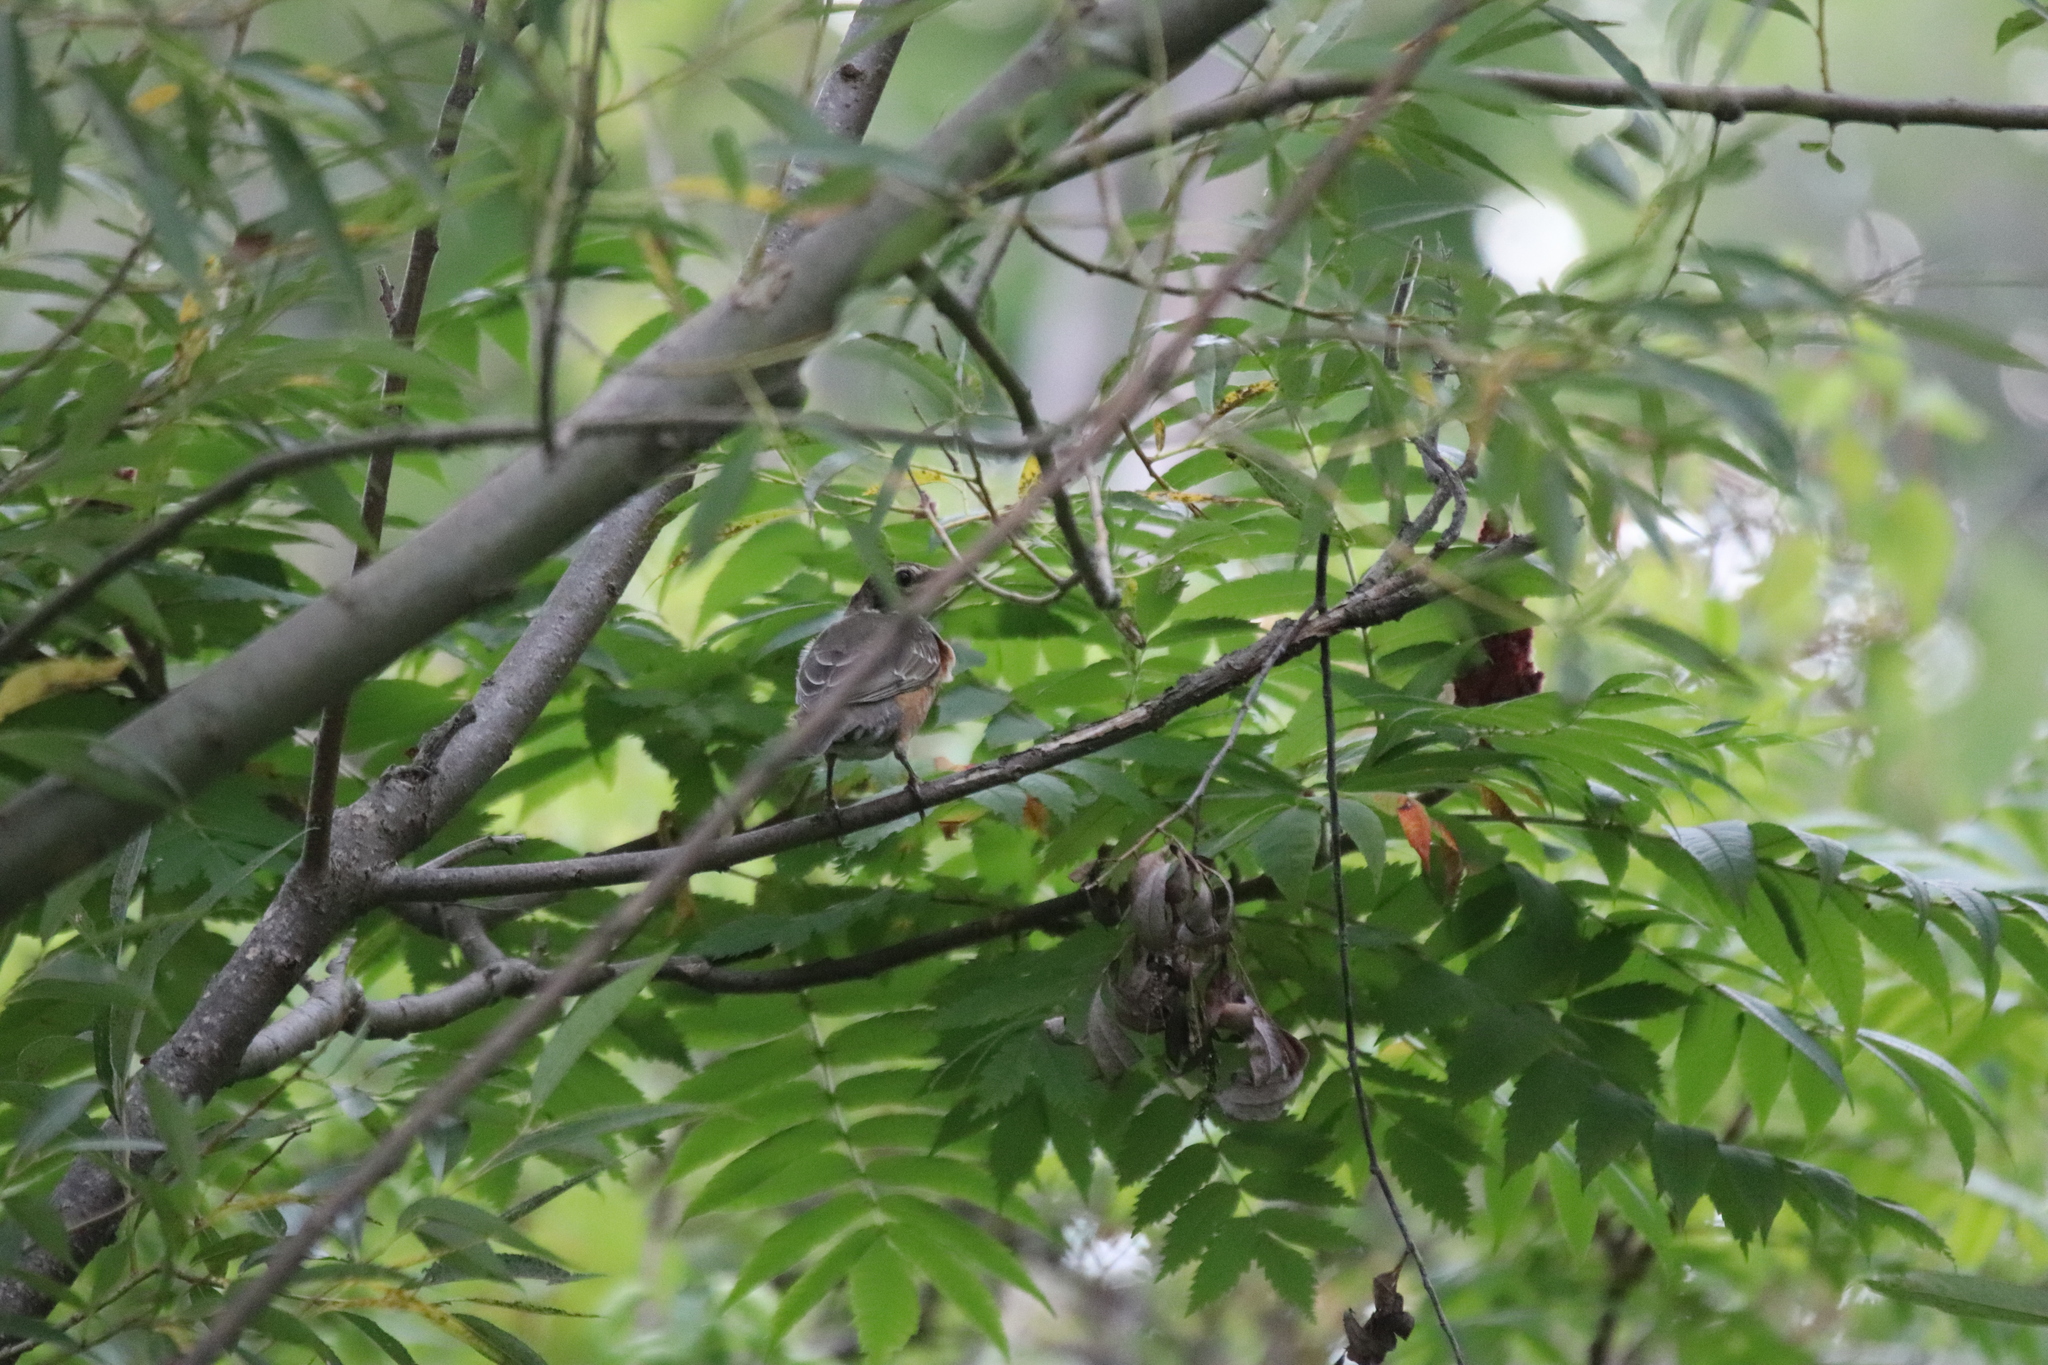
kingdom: Animalia
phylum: Chordata
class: Aves
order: Passeriformes
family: Turdidae
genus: Turdus
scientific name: Turdus migratorius
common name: American robin
